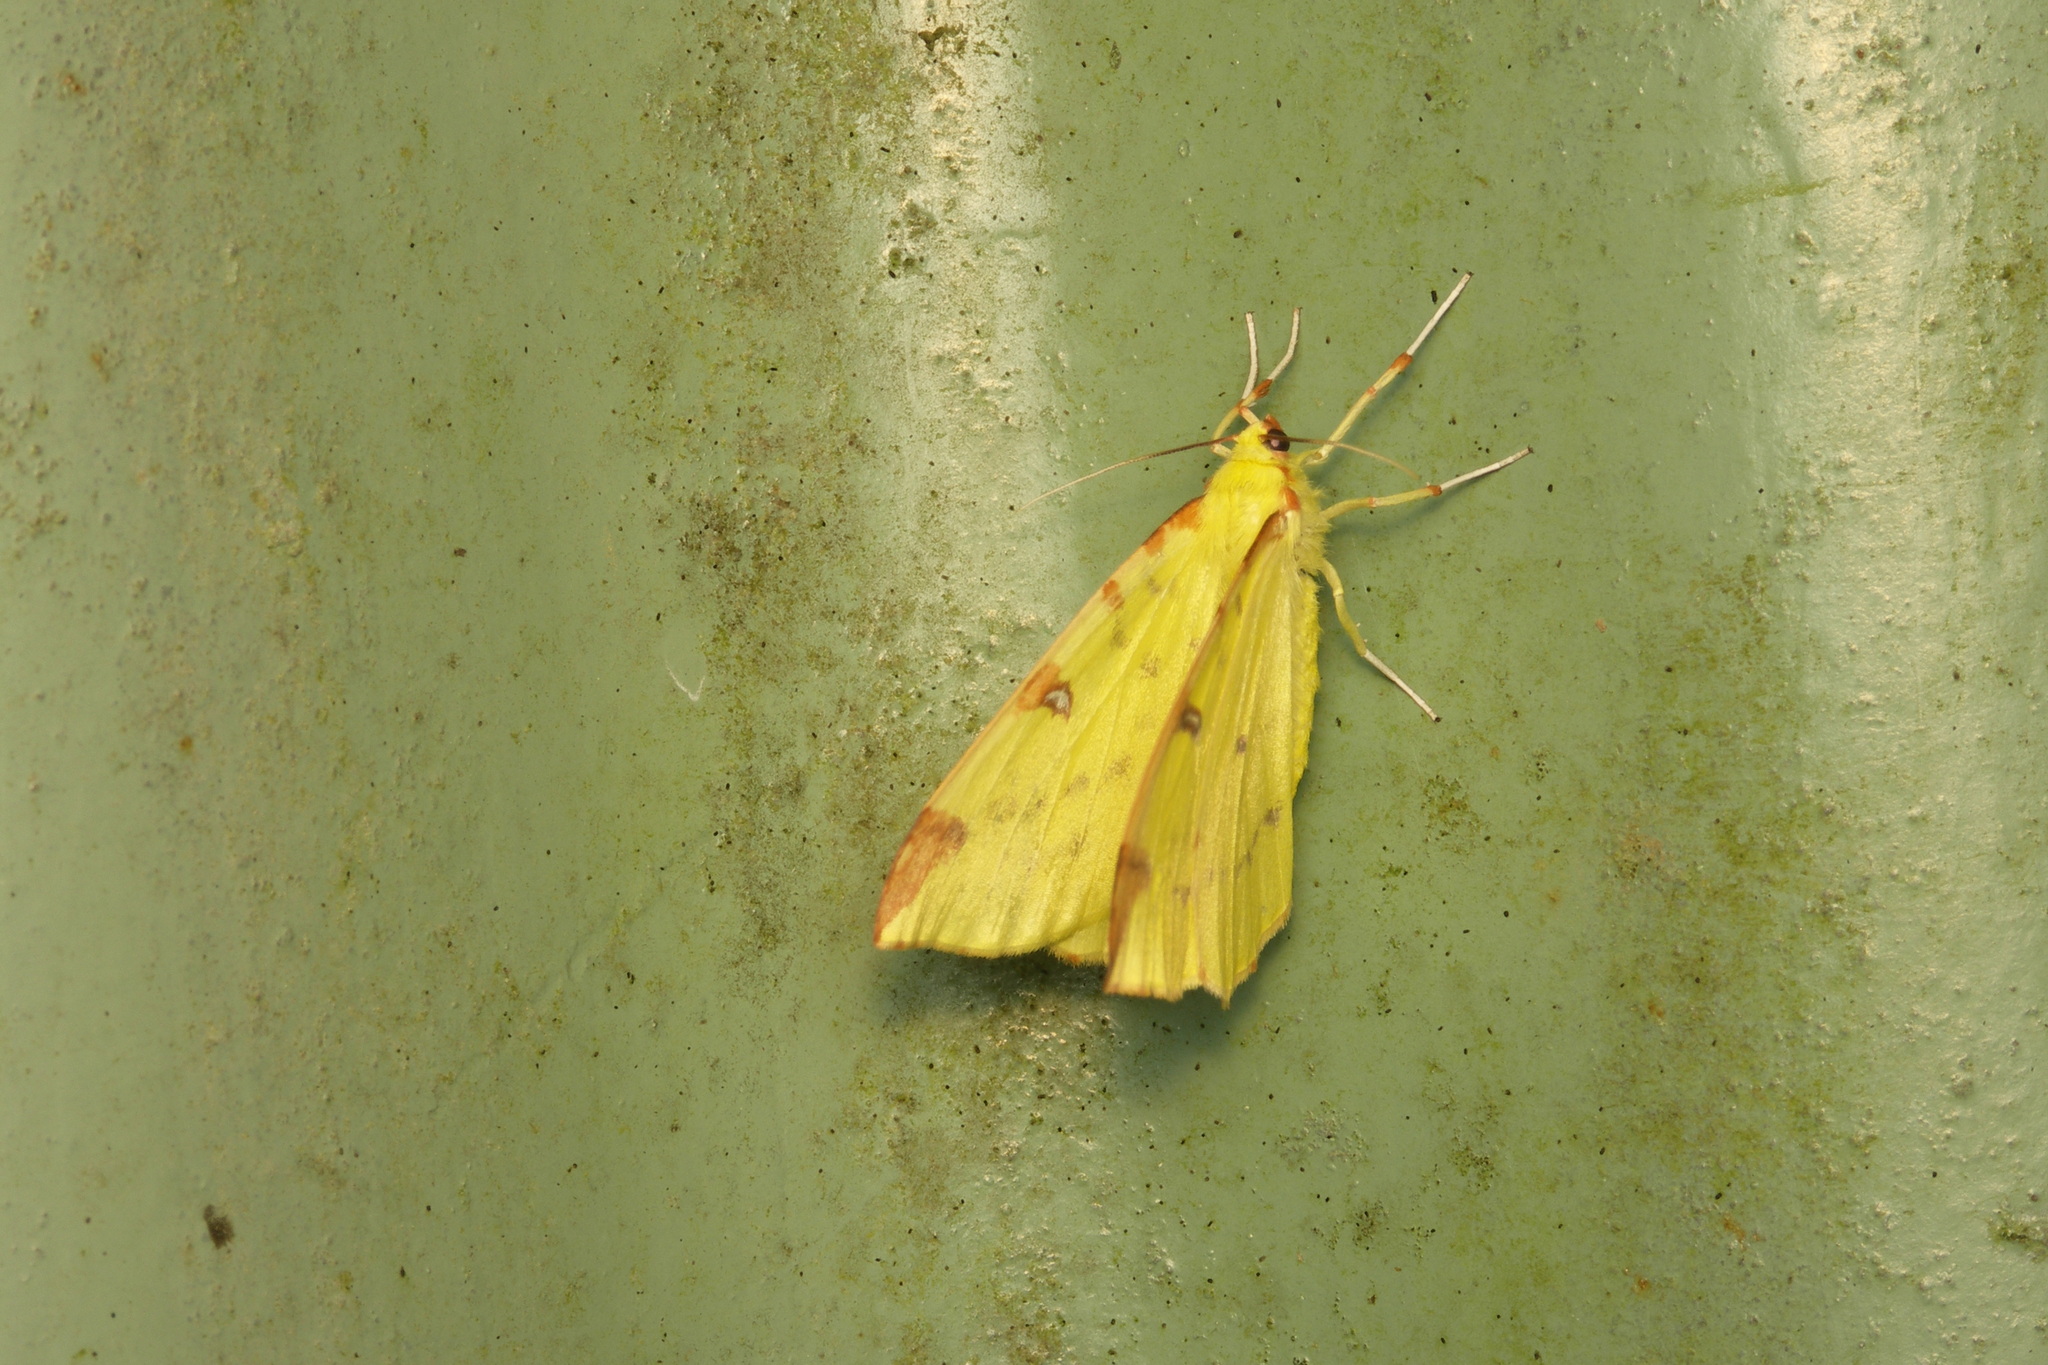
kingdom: Animalia
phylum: Arthropoda
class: Insecta
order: Lepidoptera
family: Geometridae
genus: Opisthograptis
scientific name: Opisthograptis luteolata
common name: Brimstone moth
